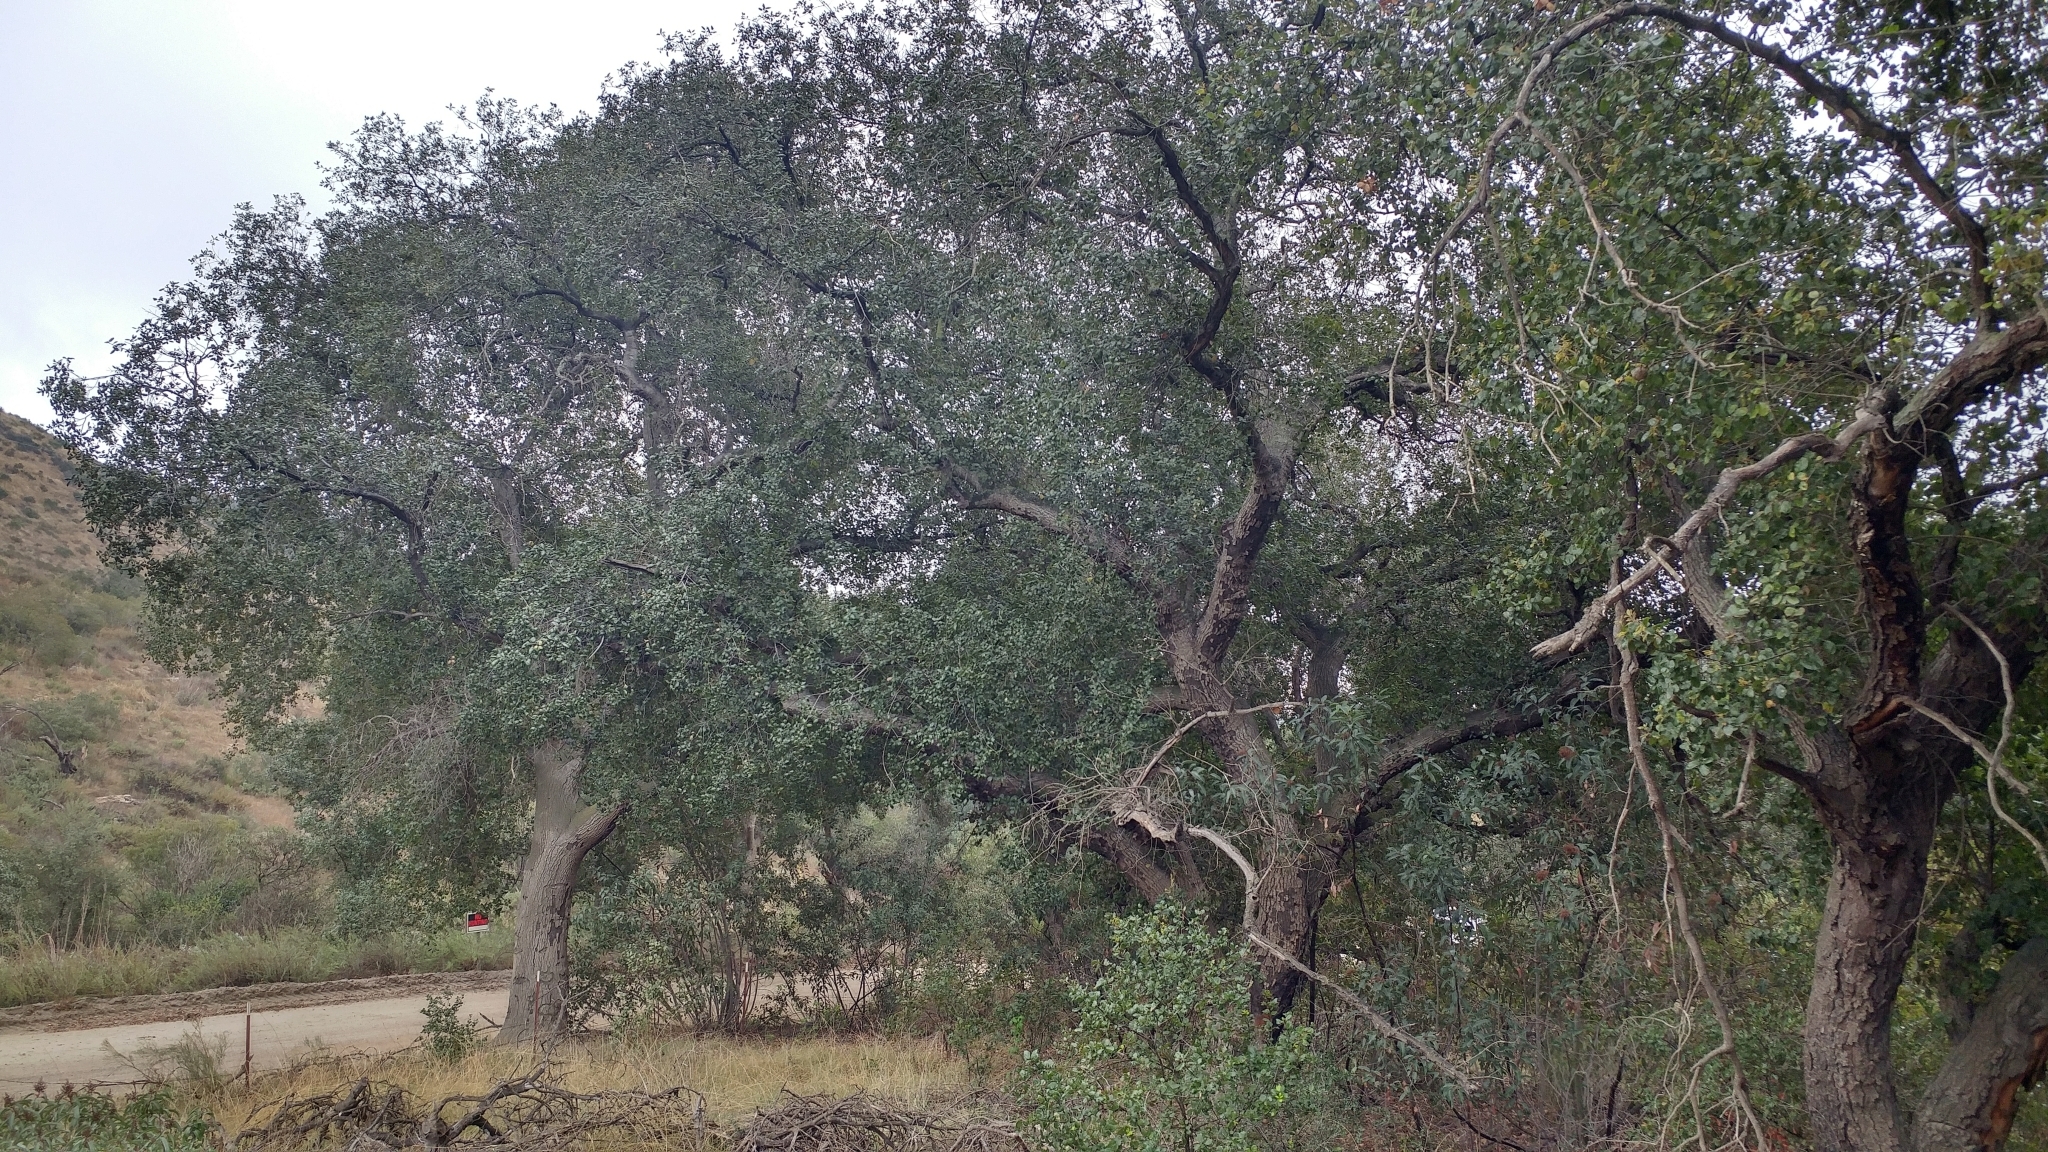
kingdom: Plantae
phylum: Tracheophyta
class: Magnoliopsida
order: Fagales
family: Fagaceae
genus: Quercus
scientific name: Quercus agrifolia
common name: California live oak
